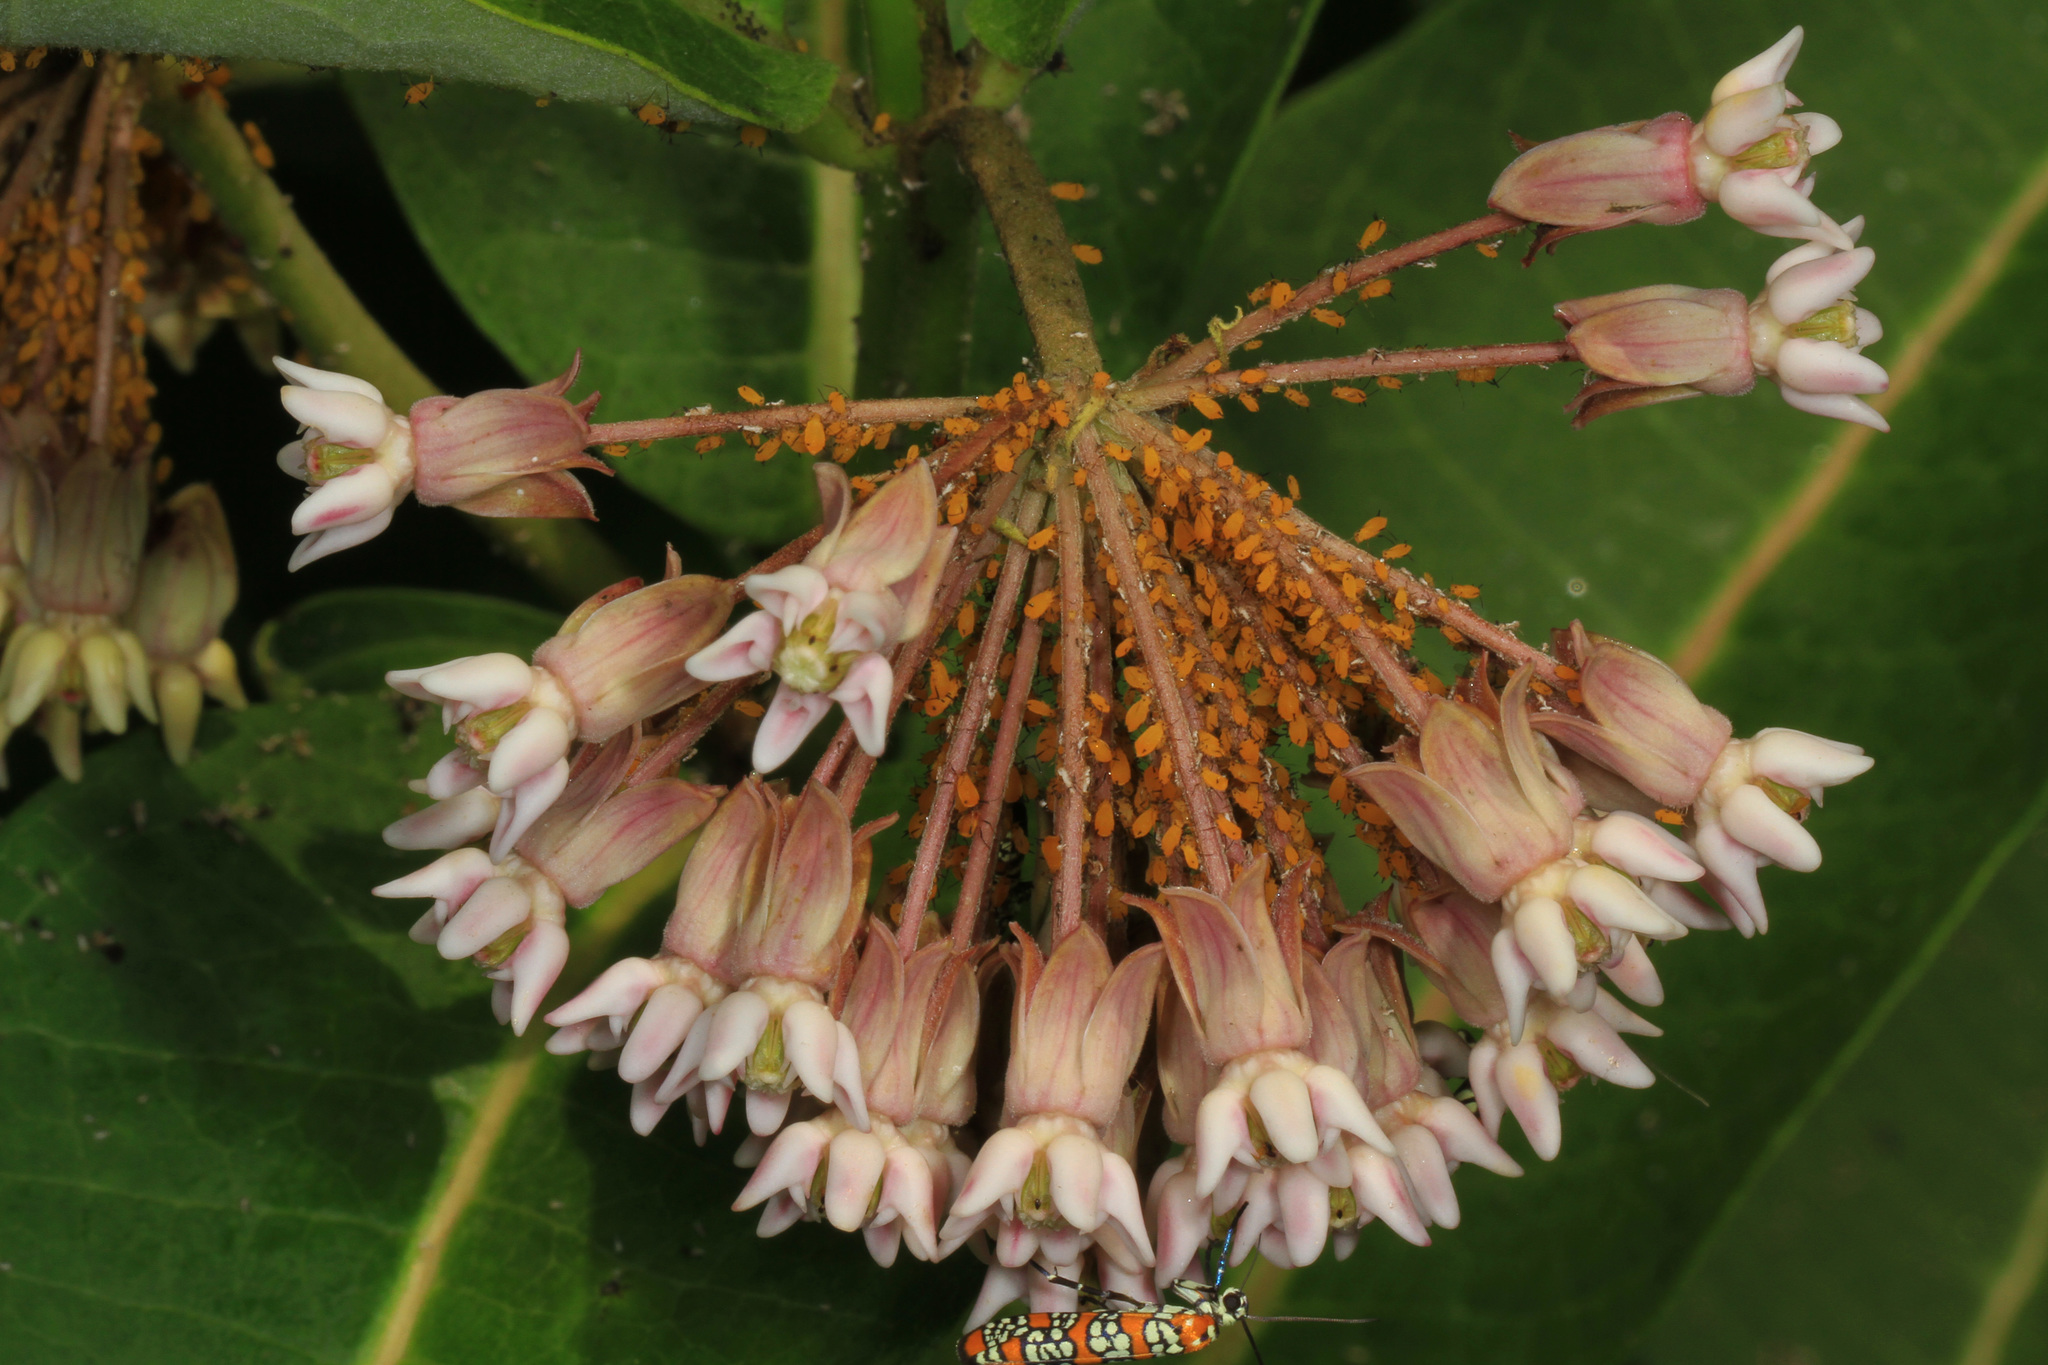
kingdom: Plantae
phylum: Tracheophyta
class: Magnoliopsida
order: Gentianales
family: Apocynaceae
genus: Asclepias
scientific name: Asclepias syriaca
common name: Common milkweed
